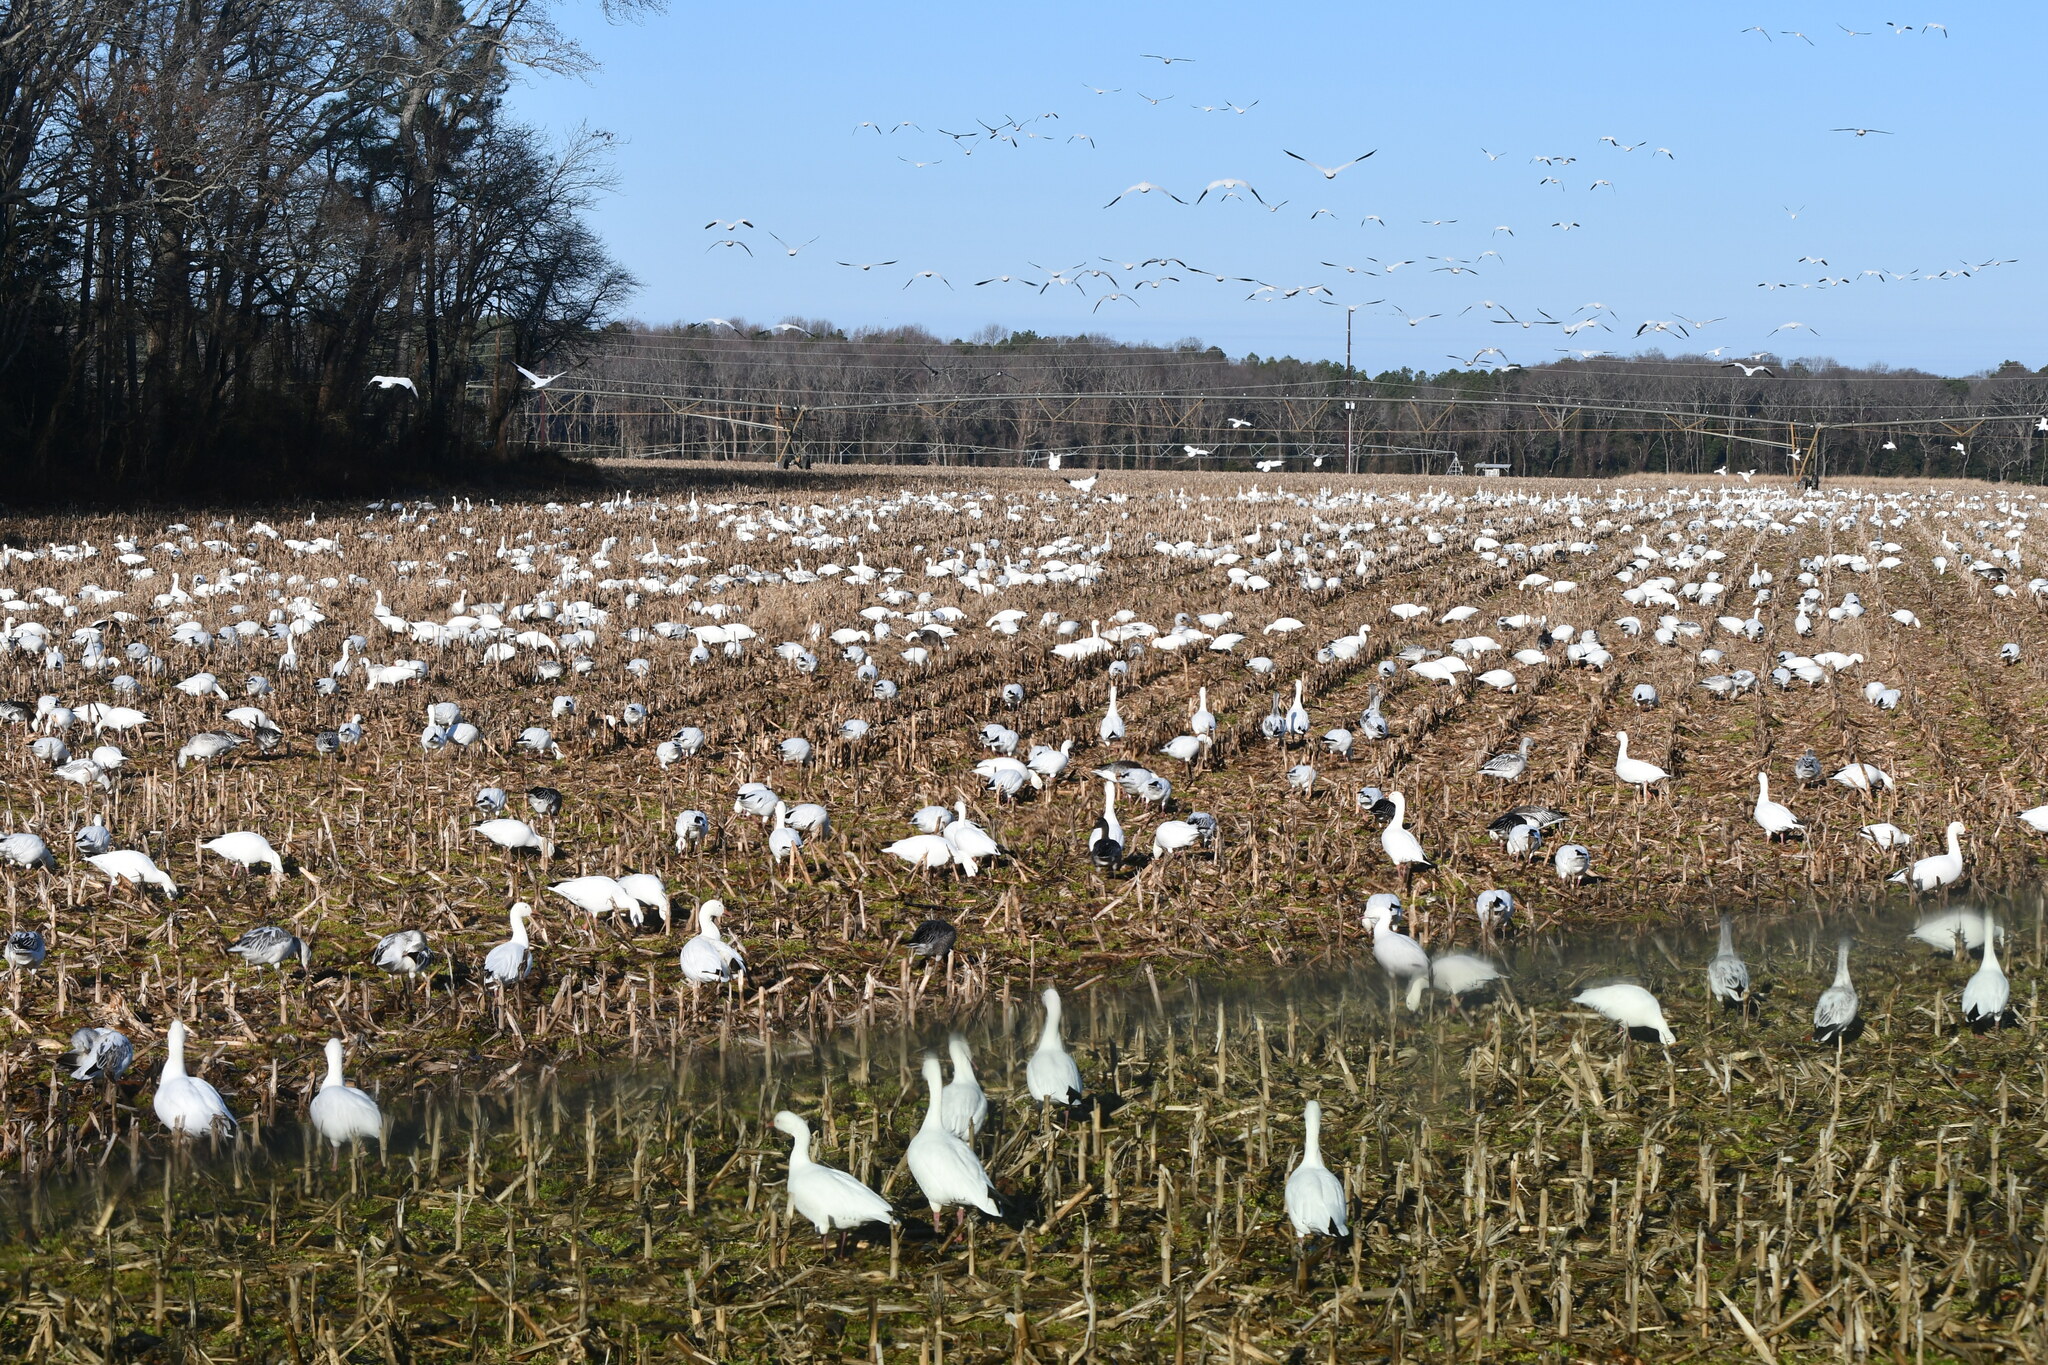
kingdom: Animalia
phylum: Chordata
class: Aves
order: Anseriformes
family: Anatidae
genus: Anser
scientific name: Anser caerulescens
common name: Snow goose
